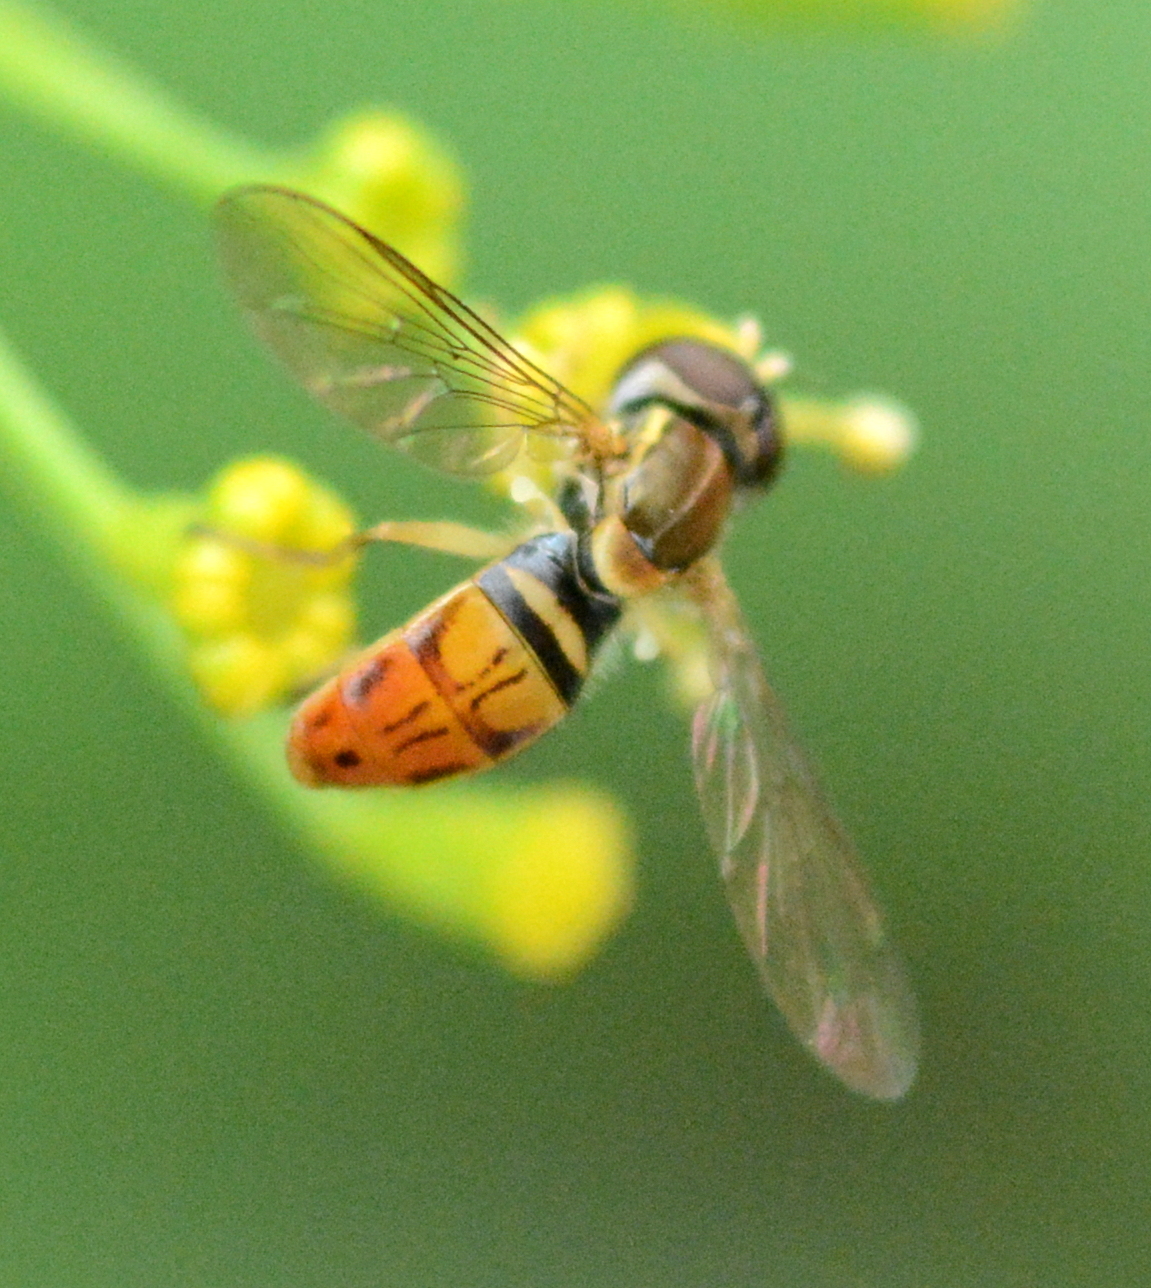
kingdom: Animalia
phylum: Arthropoda
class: Insecta
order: Diptera
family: Syrphidae
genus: Toxomerus
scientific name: Toxomerus marginatus
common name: Syrphid fly
